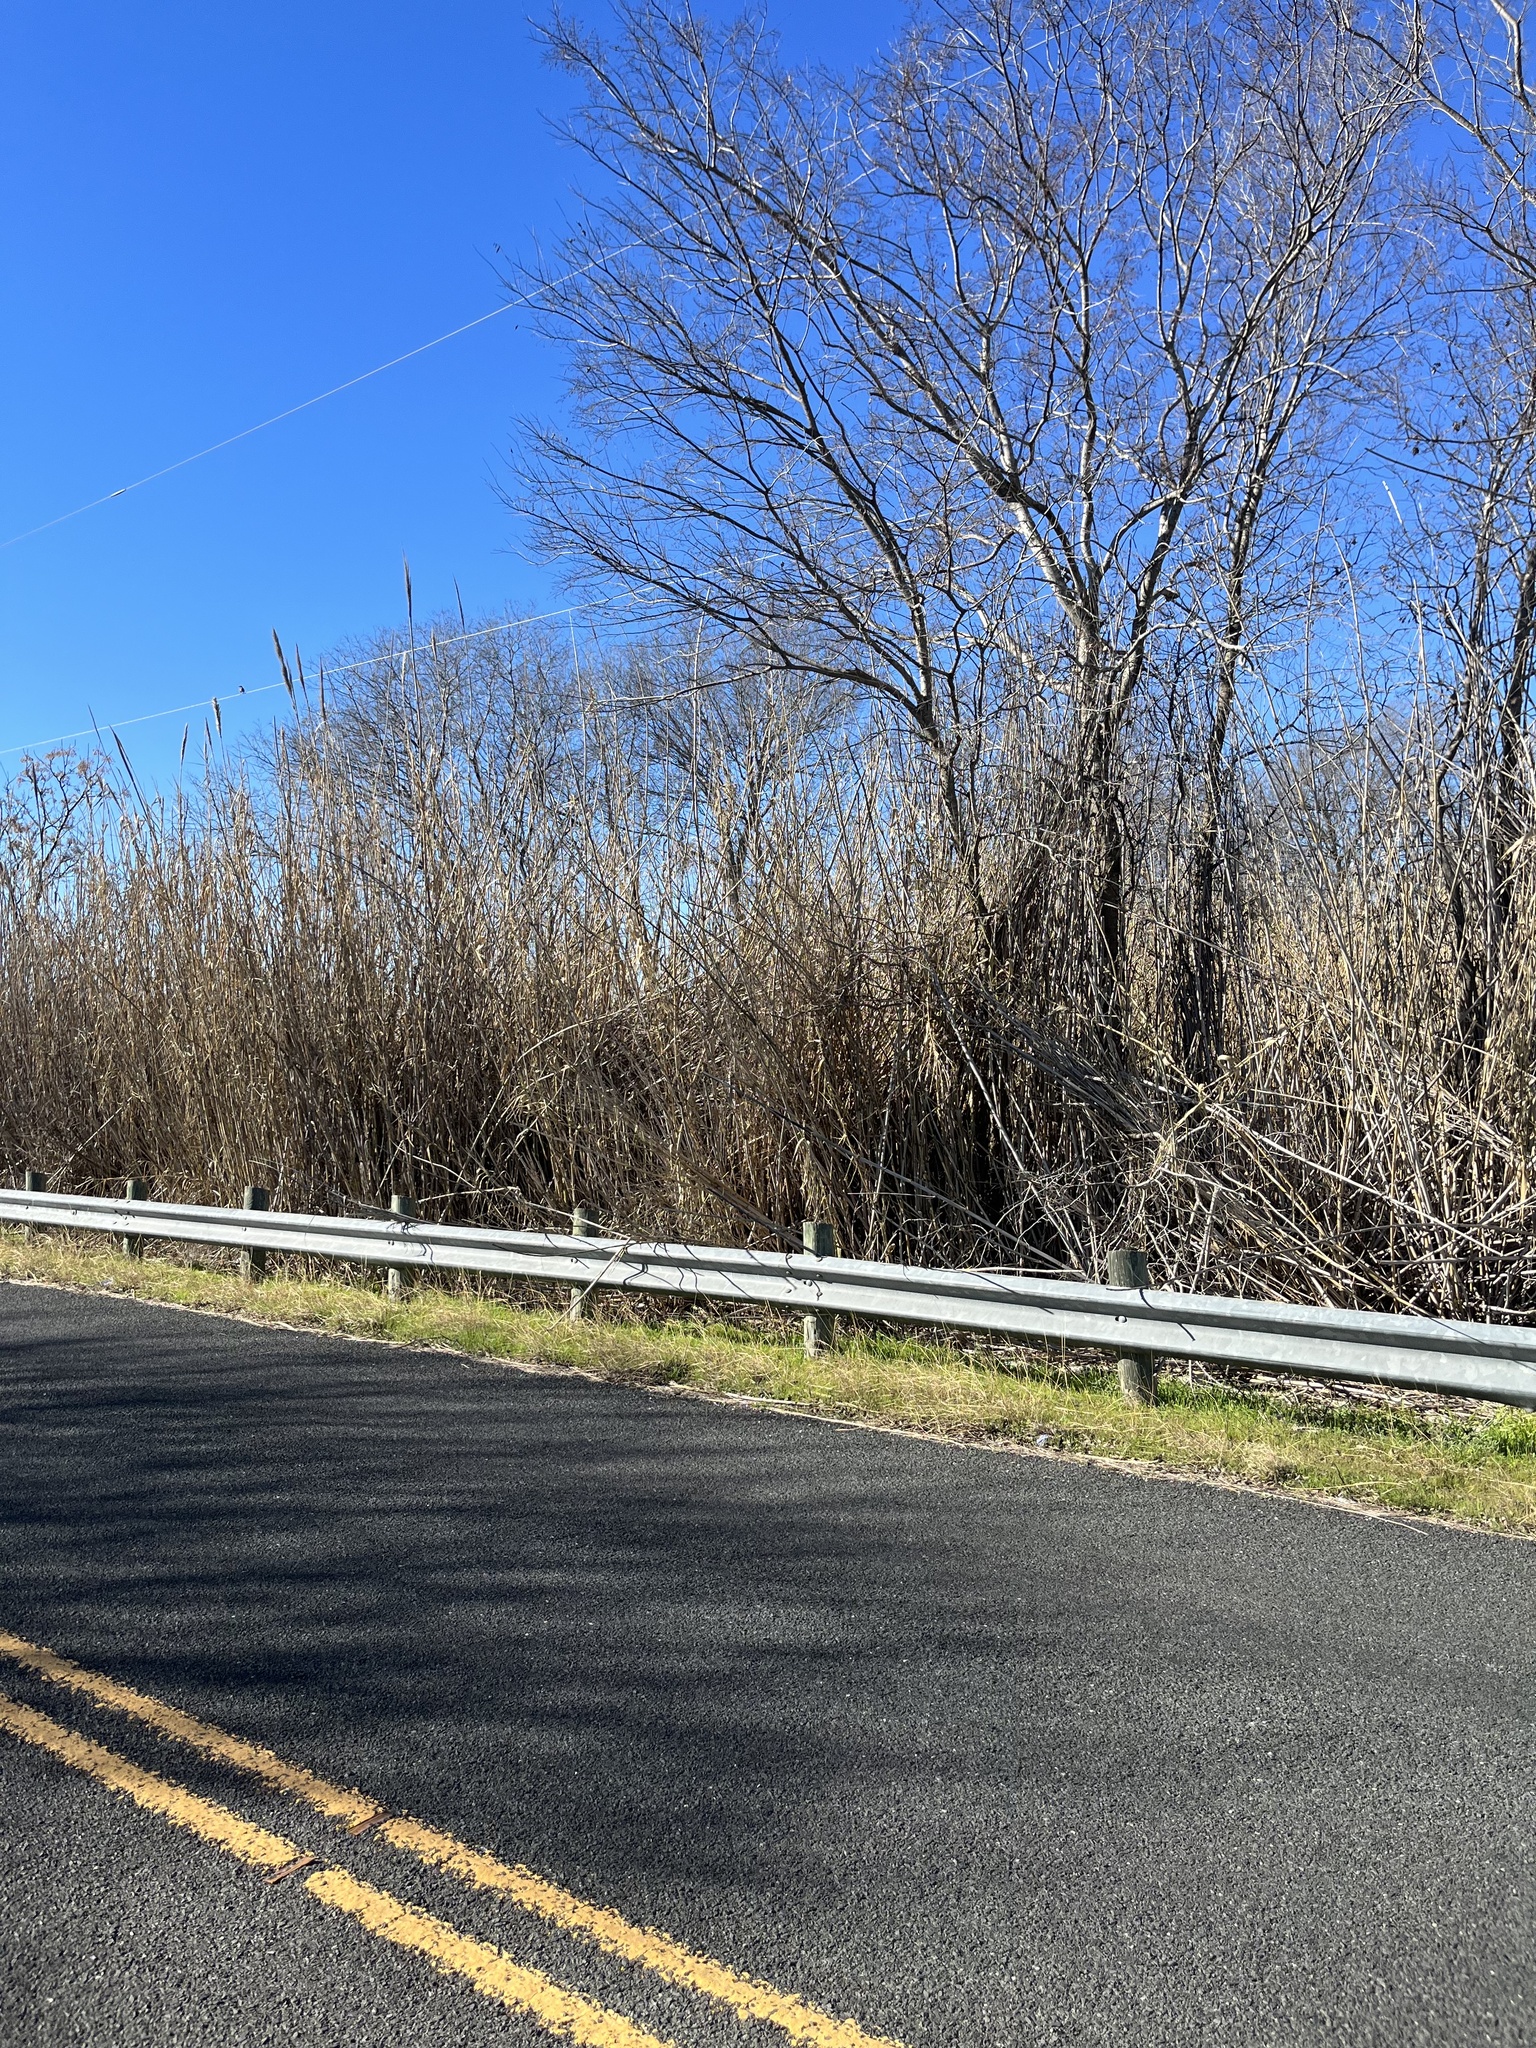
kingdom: Plantae
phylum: Tracheophyta
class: Liliopsida
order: Poales
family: Poaceae
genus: Arundo
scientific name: Arundo donax
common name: Giant reed
